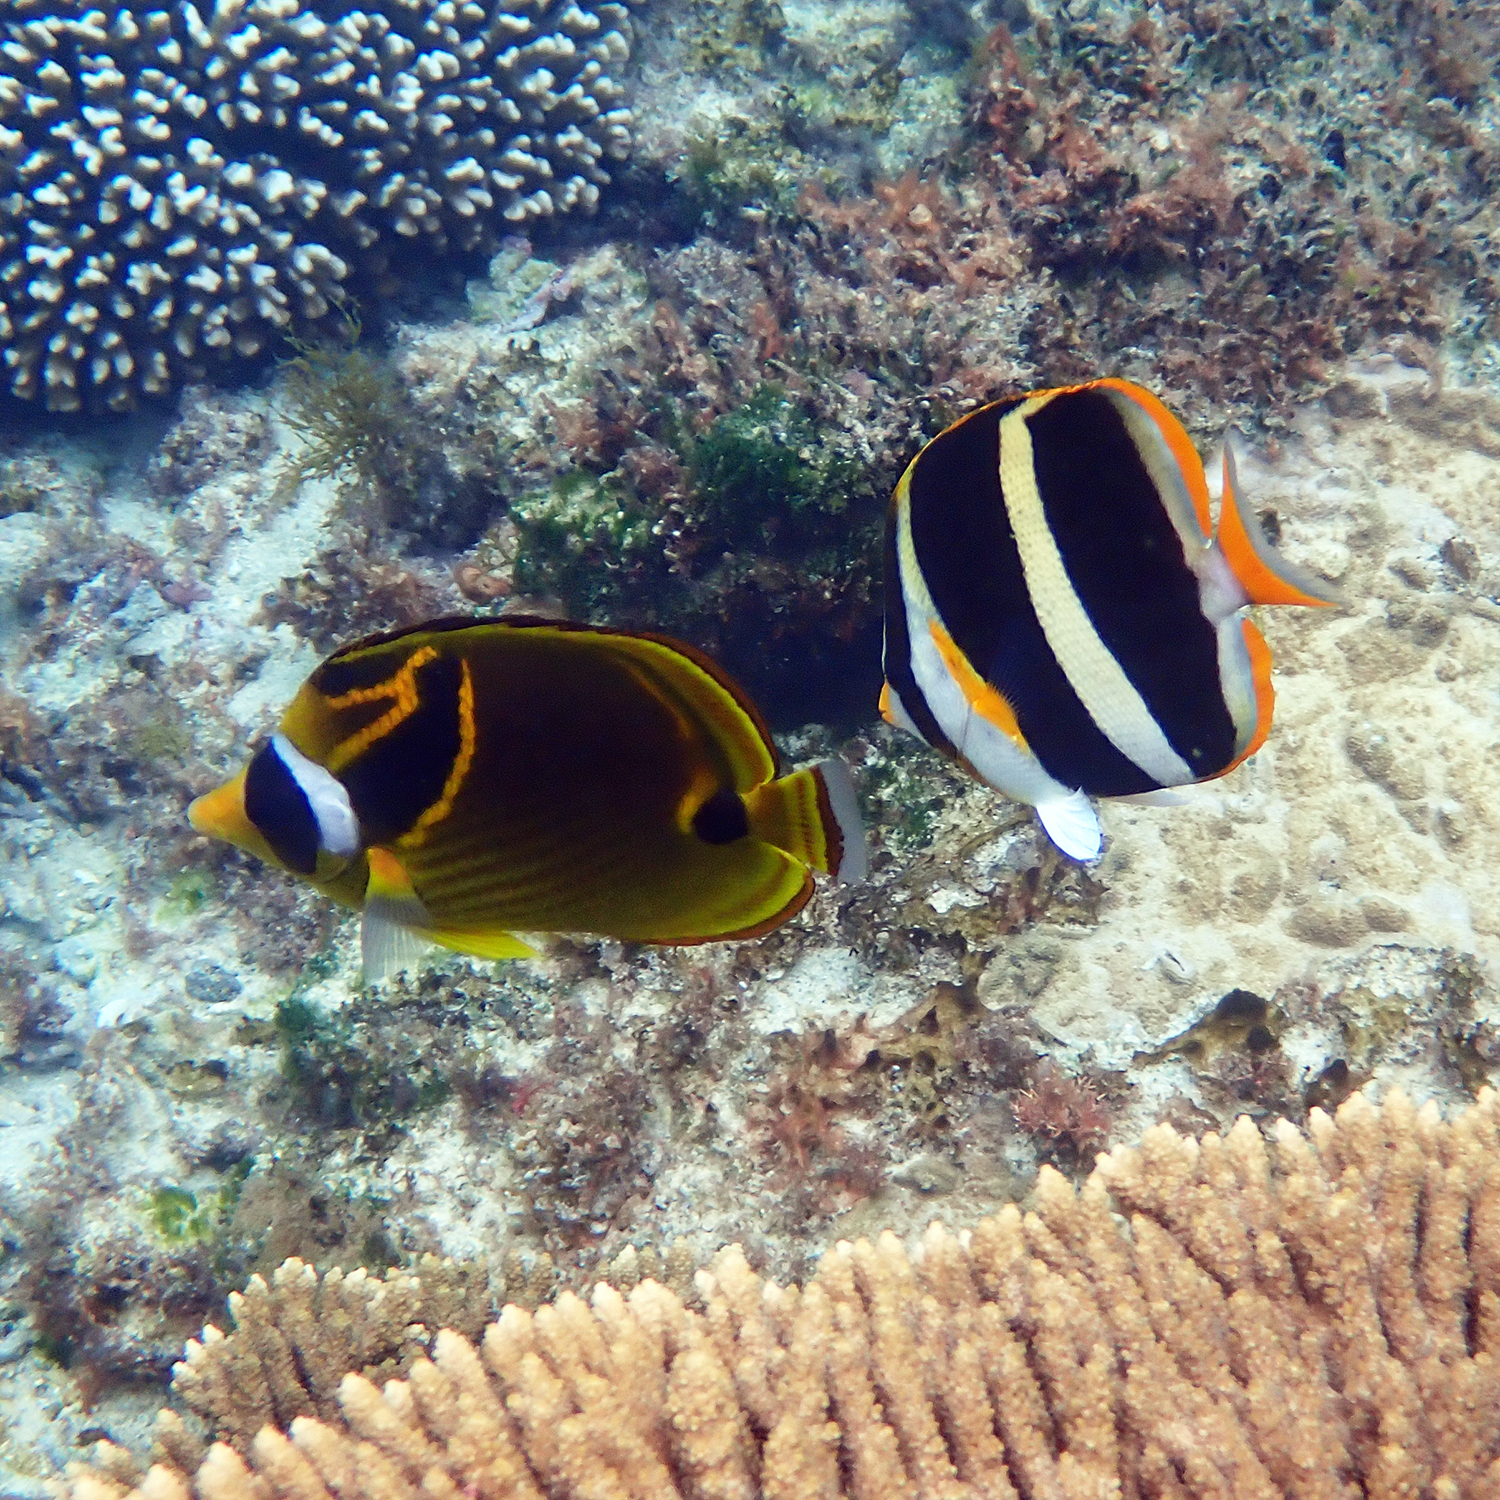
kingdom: Animalia
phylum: Chordata
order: Perciformes
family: Chaetodontidae
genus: Chaetodon
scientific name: Chaetodon lunula
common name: Raccoon butterflyfish
